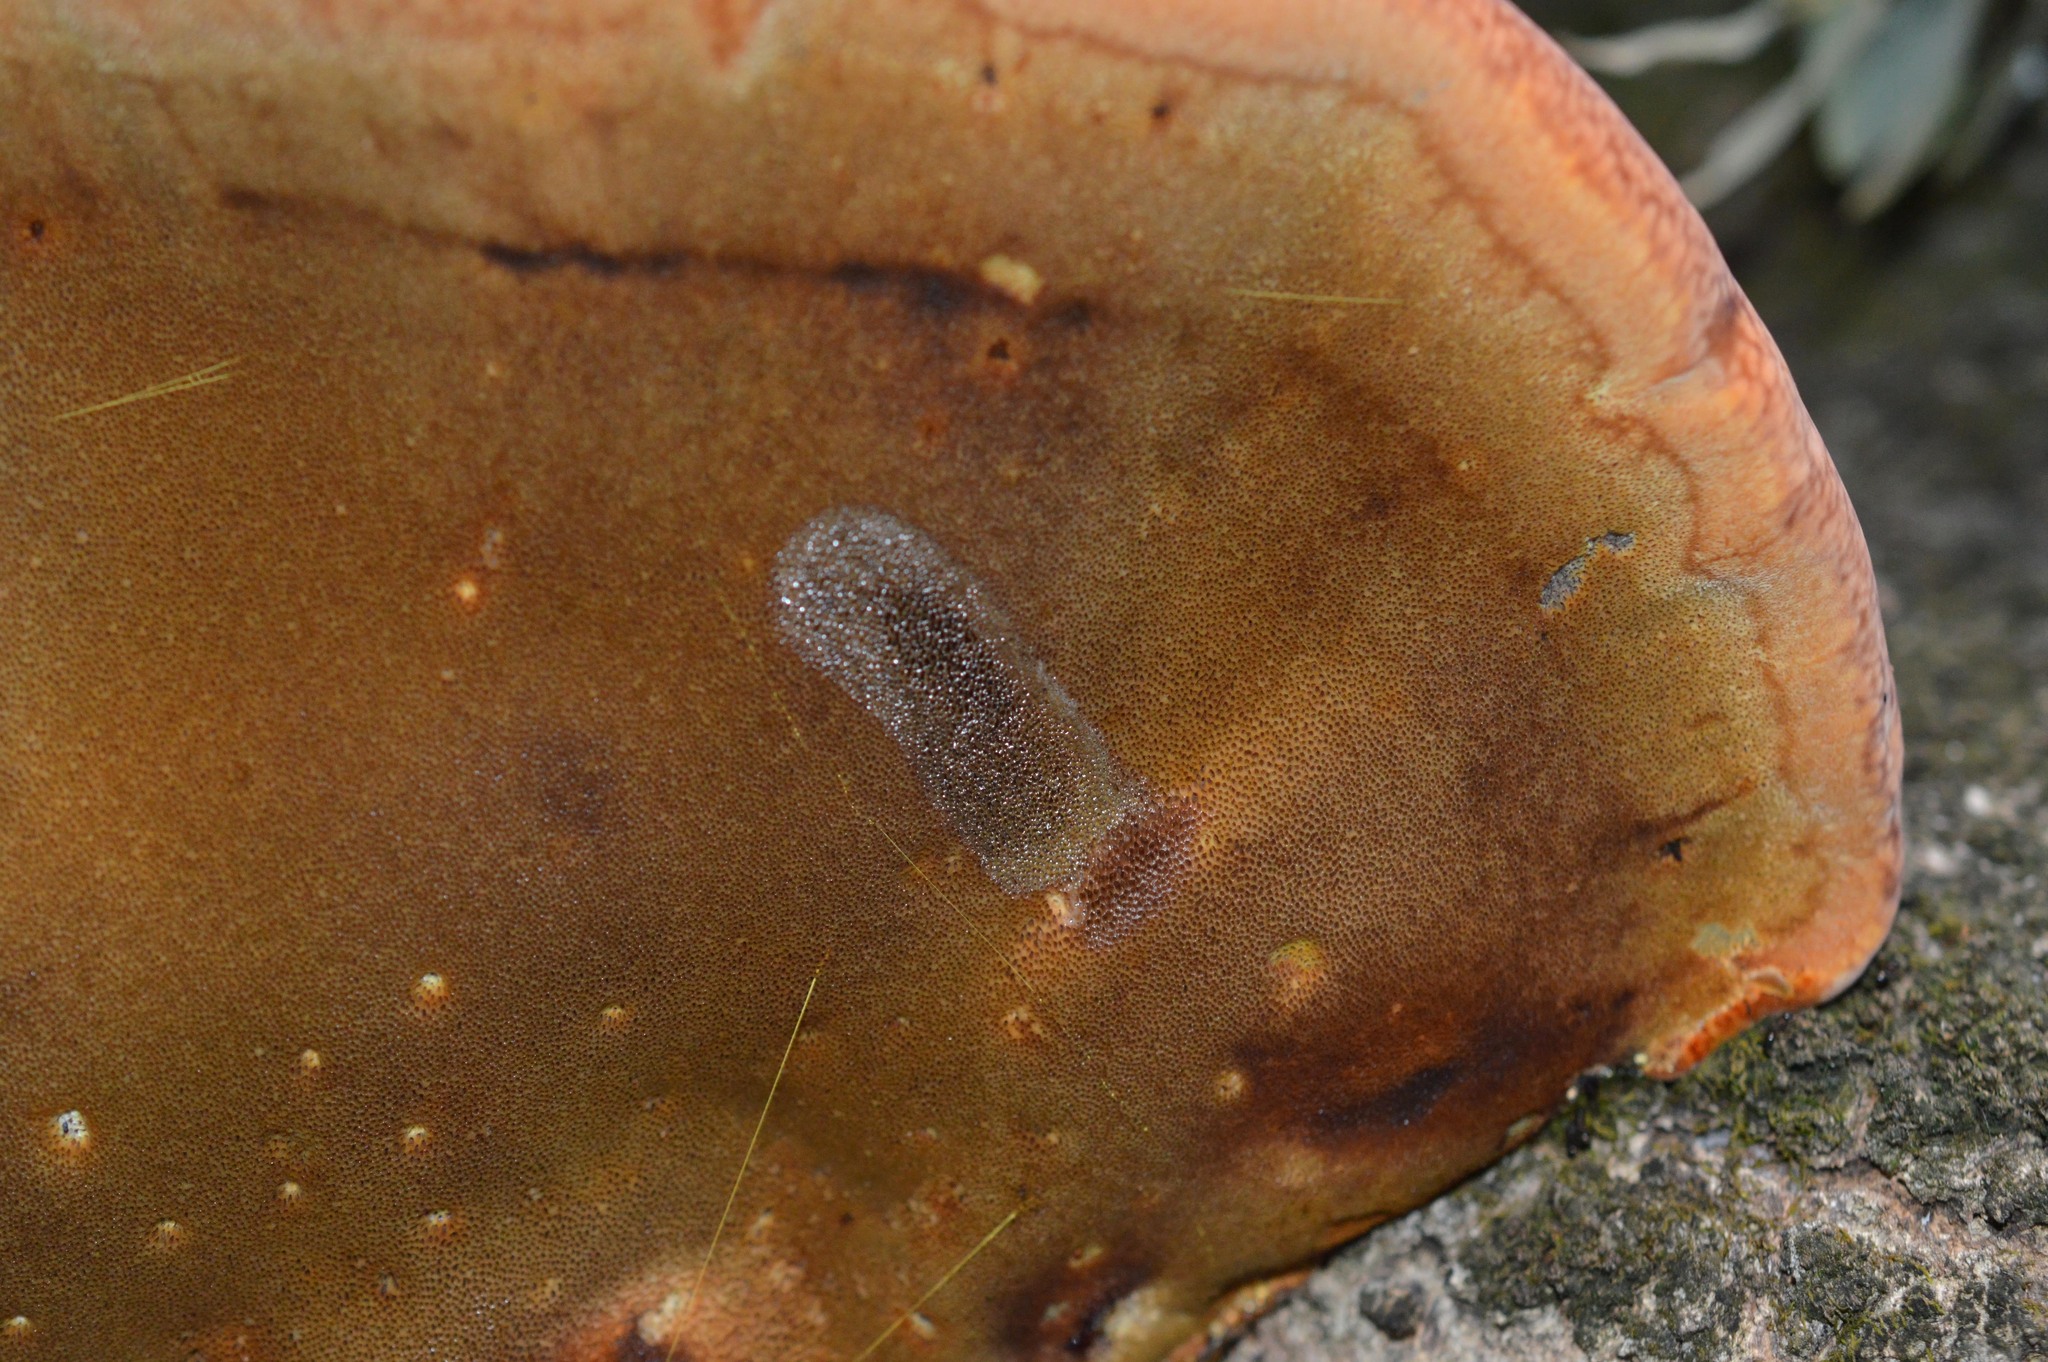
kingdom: Fungi
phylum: Basidiomycota
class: Agaricomycetes
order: Hymenochaetales
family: Hymenochaetaceae
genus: Inonotus
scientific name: Inonotus hispidus
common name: Shaggy bracket
